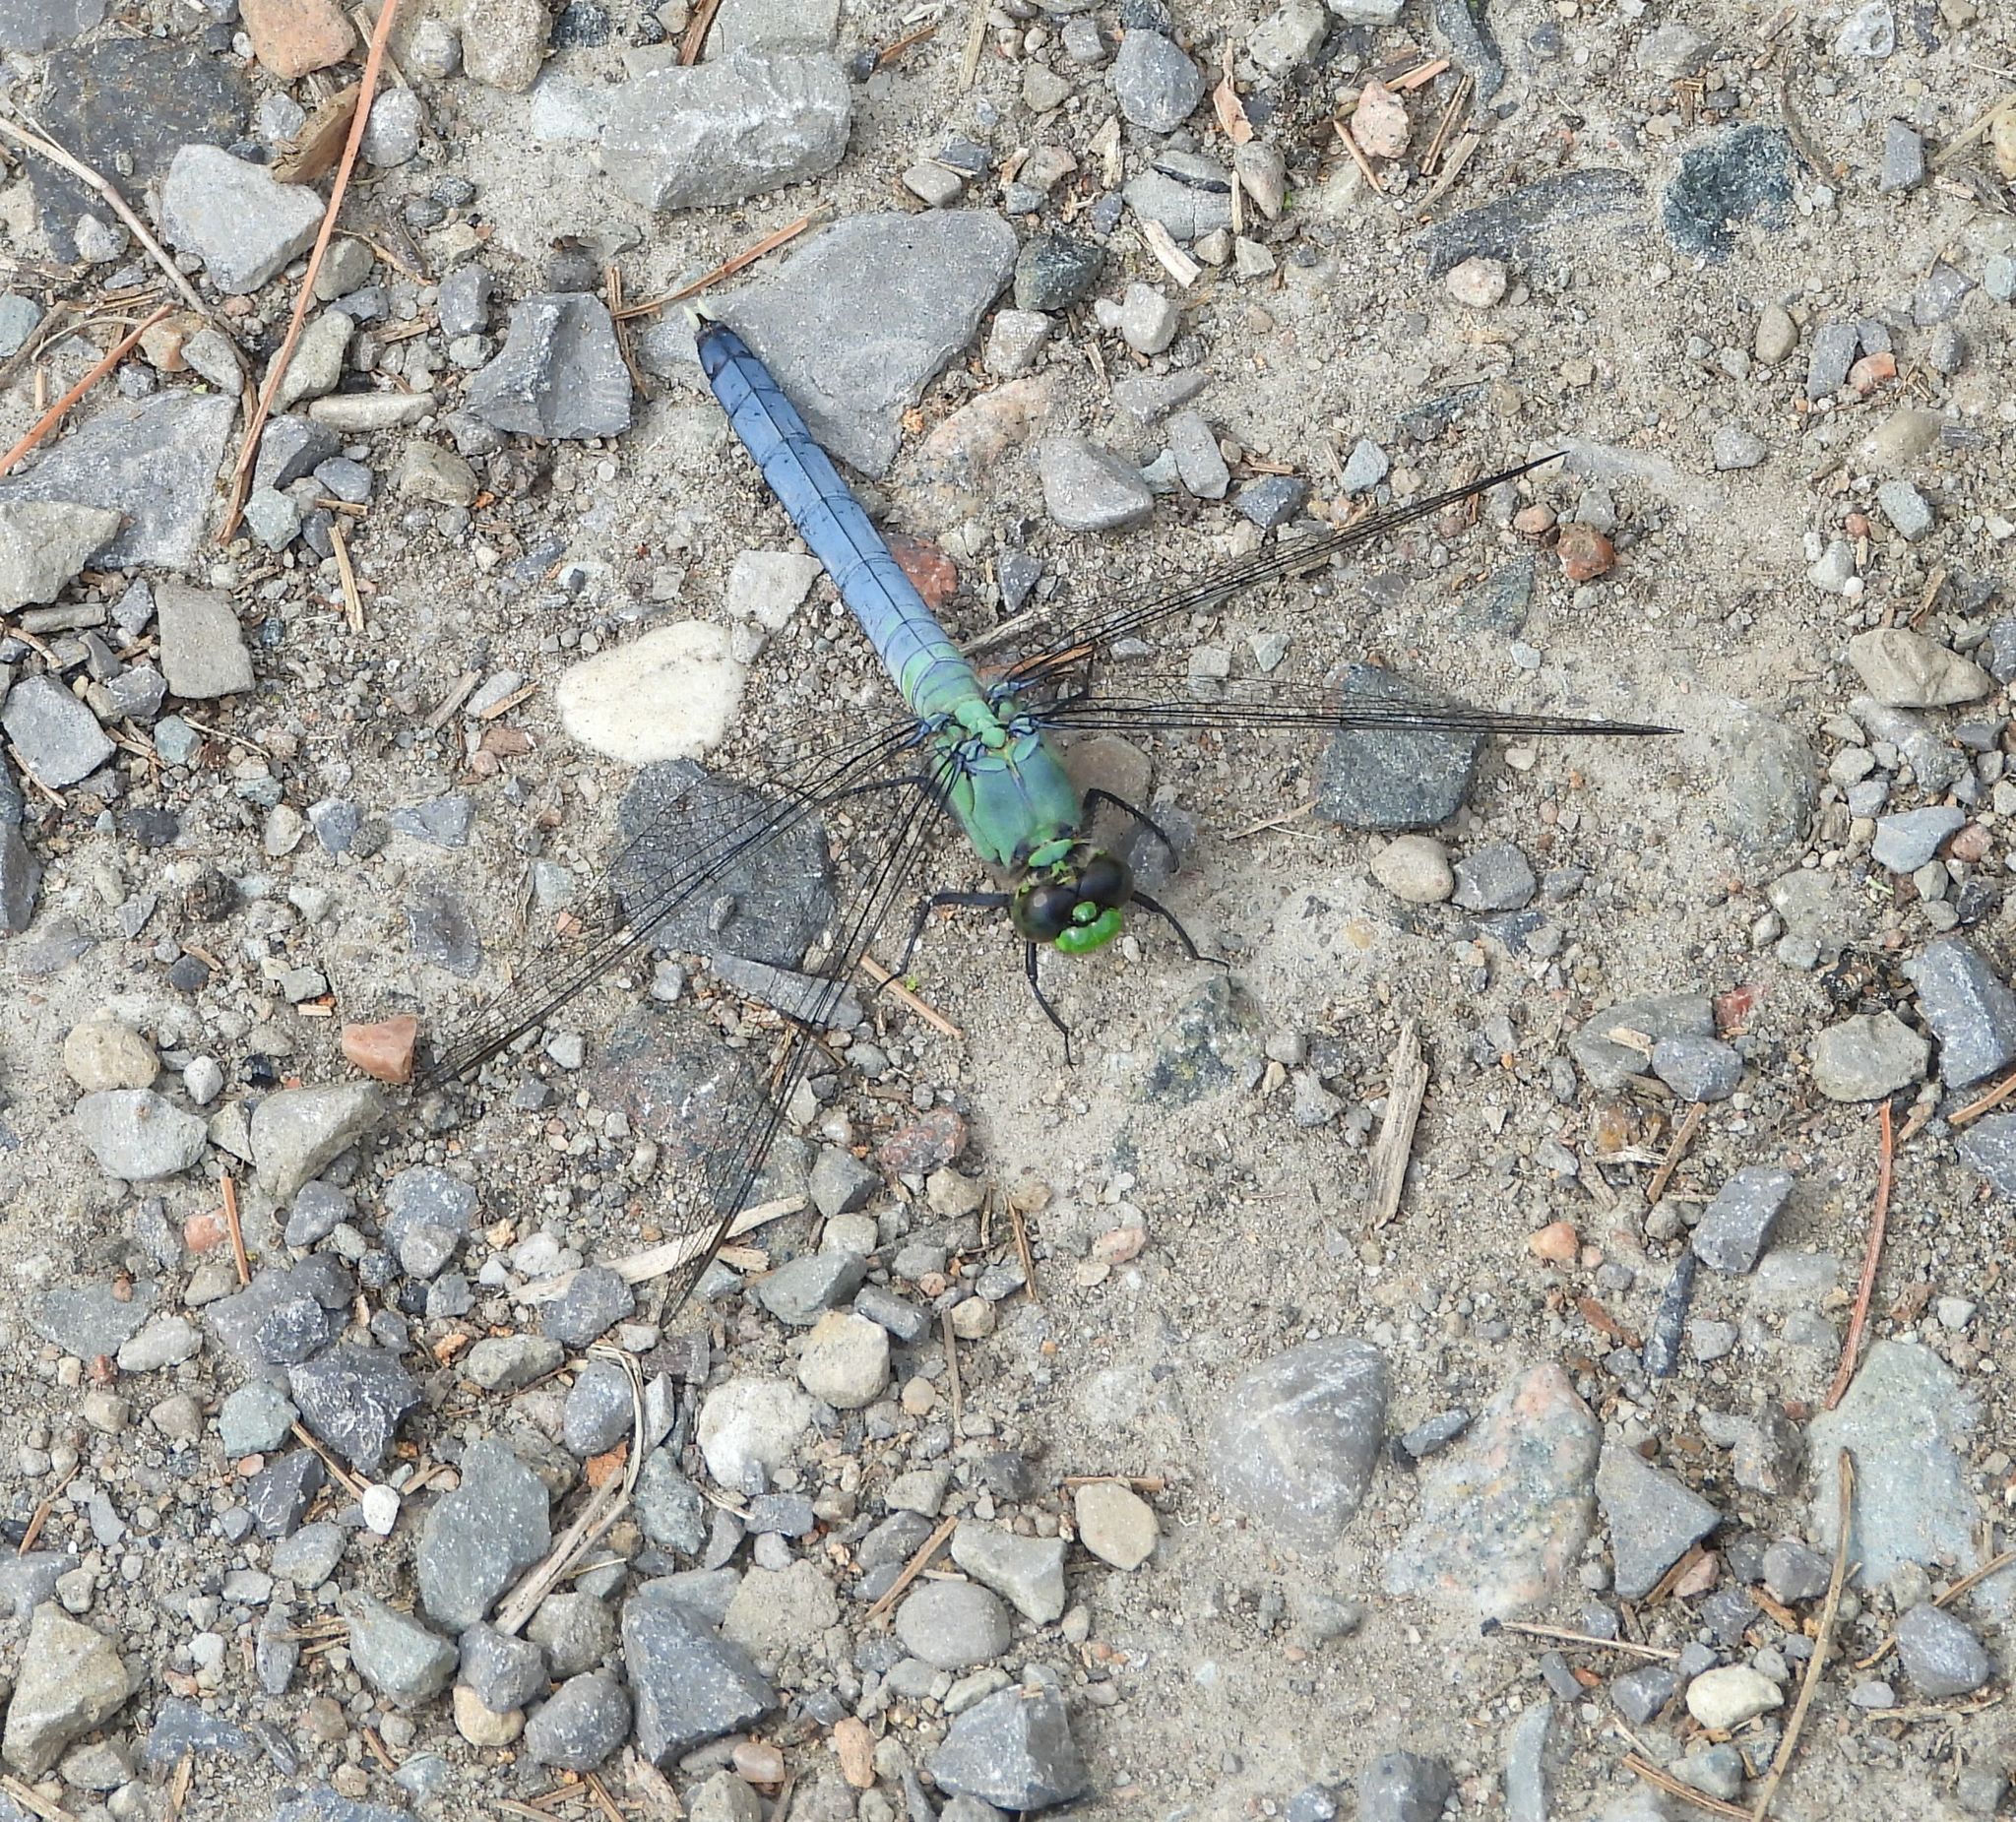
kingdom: Animalia
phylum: Arthropoda
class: Insecta
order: Odonata
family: Libellulidae
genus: Erythemis
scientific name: Erythemis simplicicollis
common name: Eastern pondhawk
